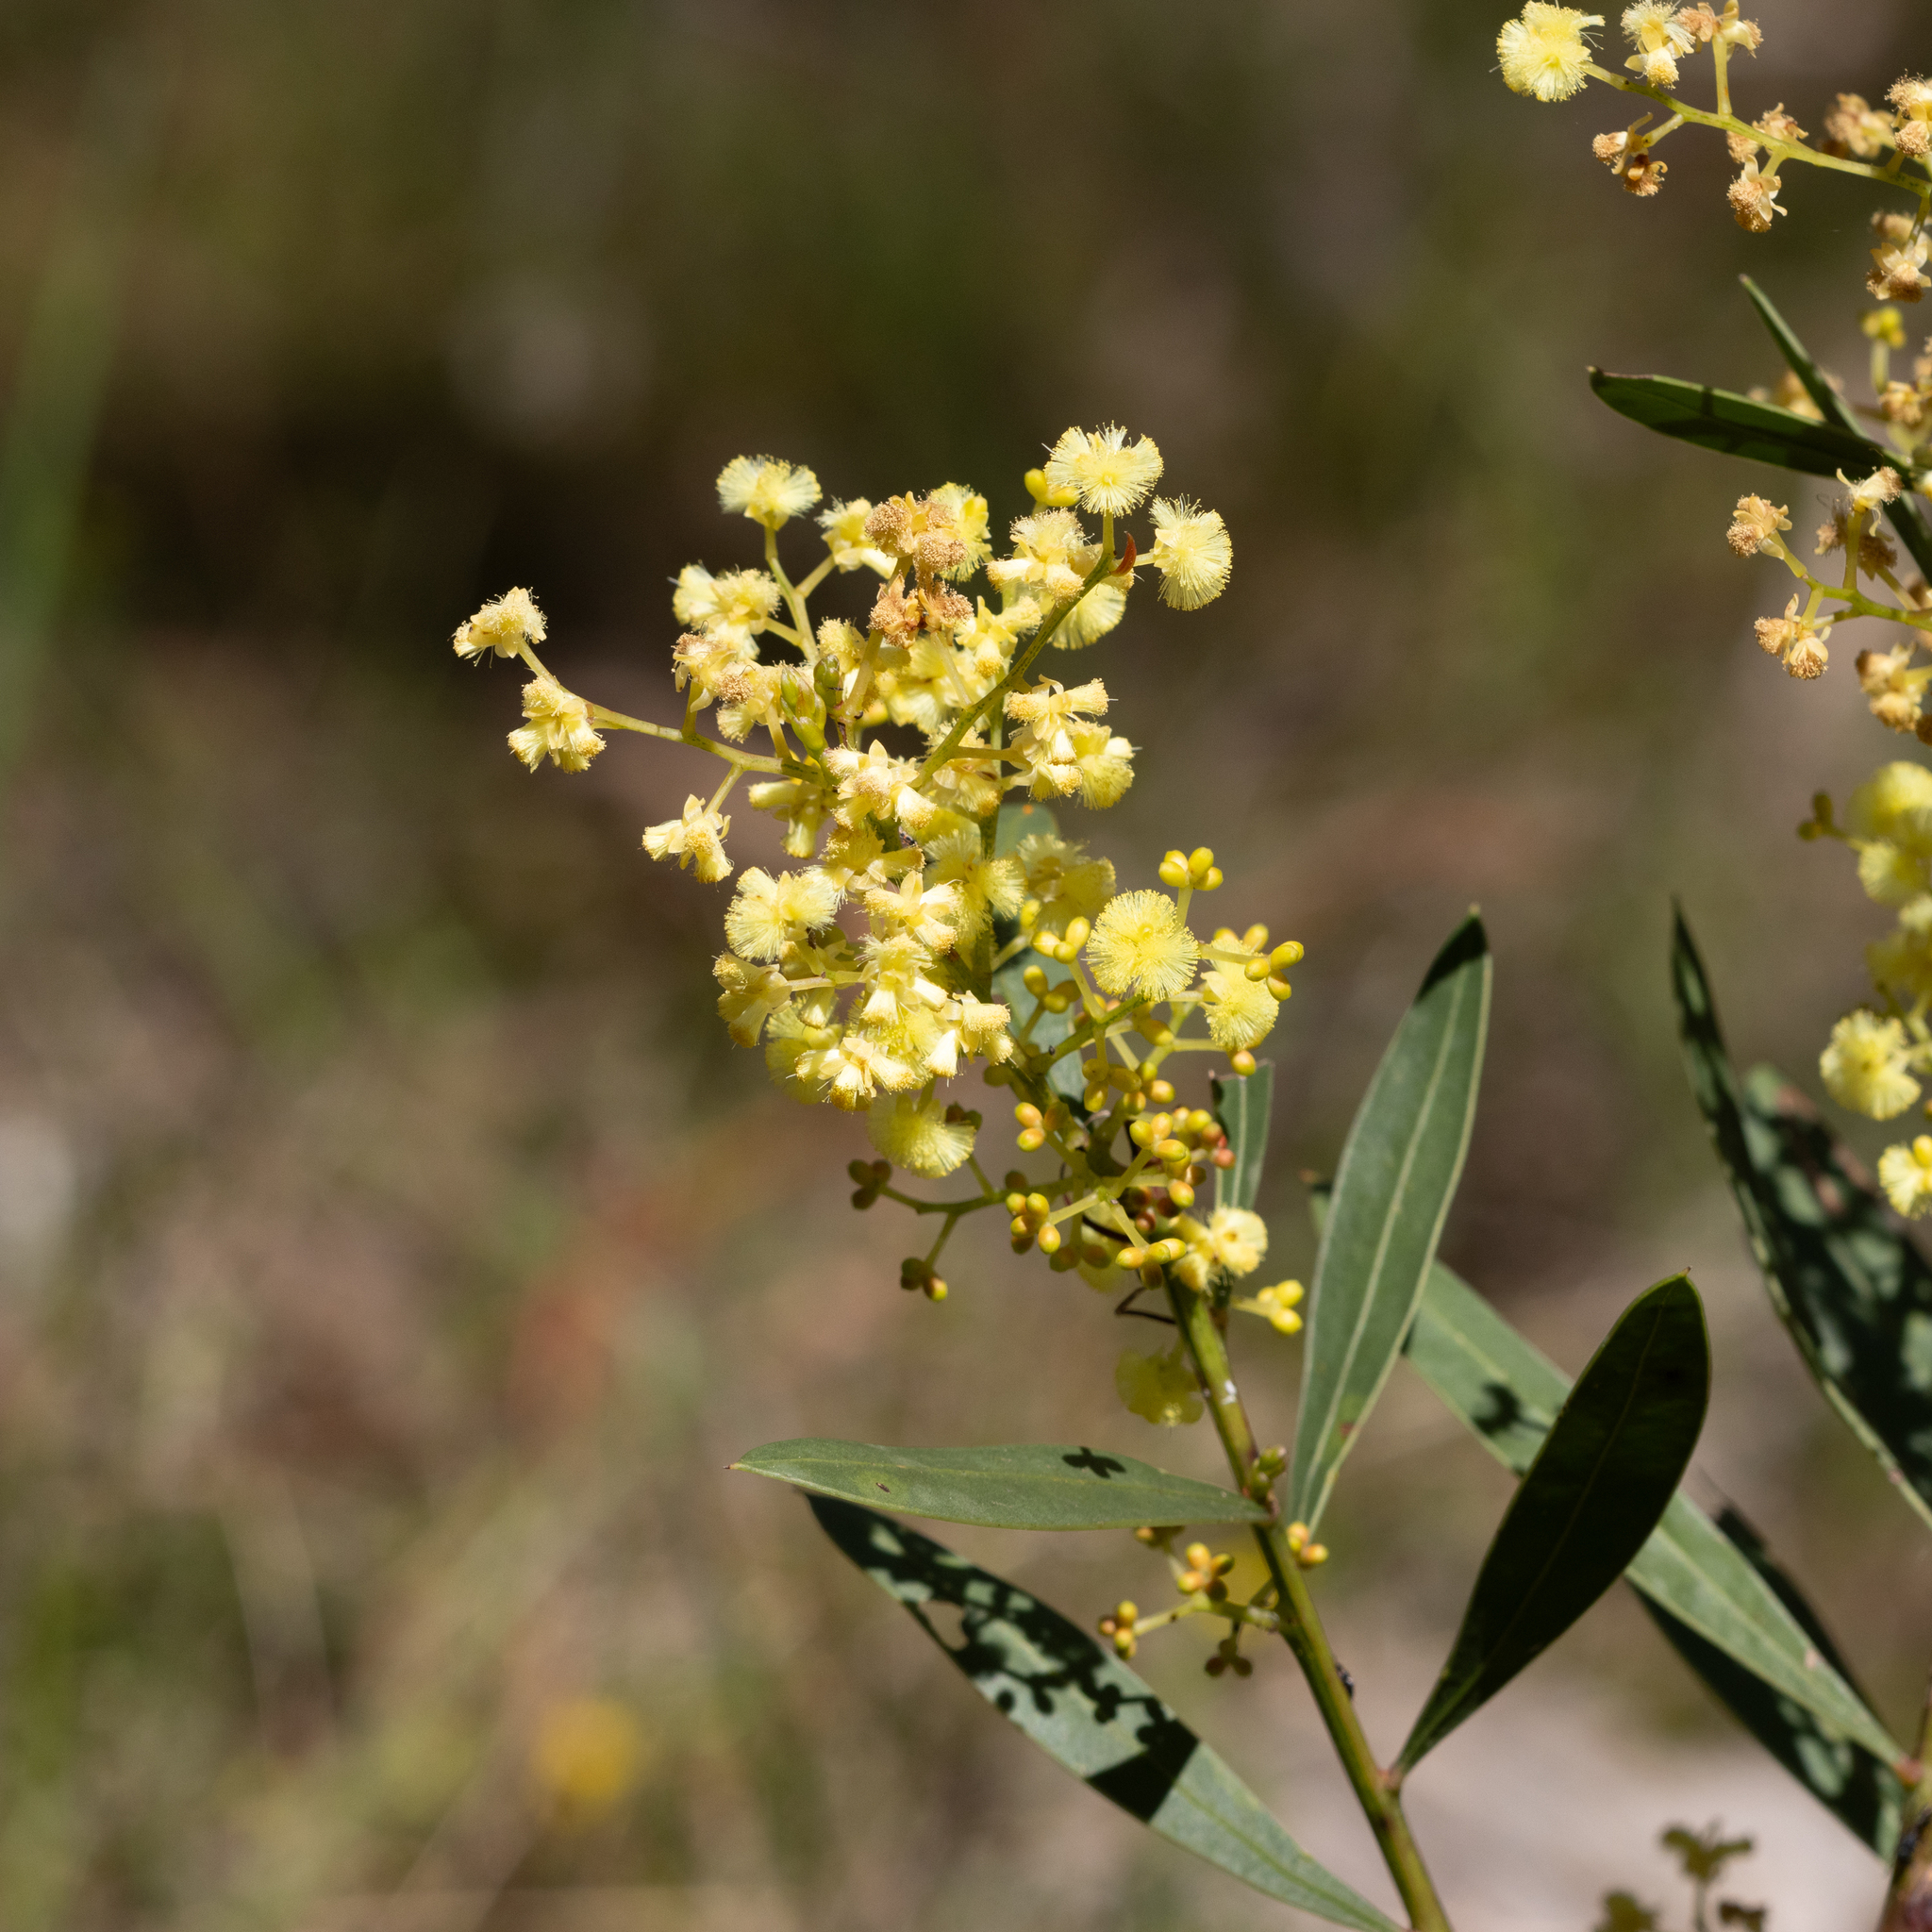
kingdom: Plantae
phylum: Tracheophyta
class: Magnoliopsida
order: Fabales
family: Fabaceae
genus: Acacia
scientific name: Acacia myrtifolia
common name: Myrtle wattle
